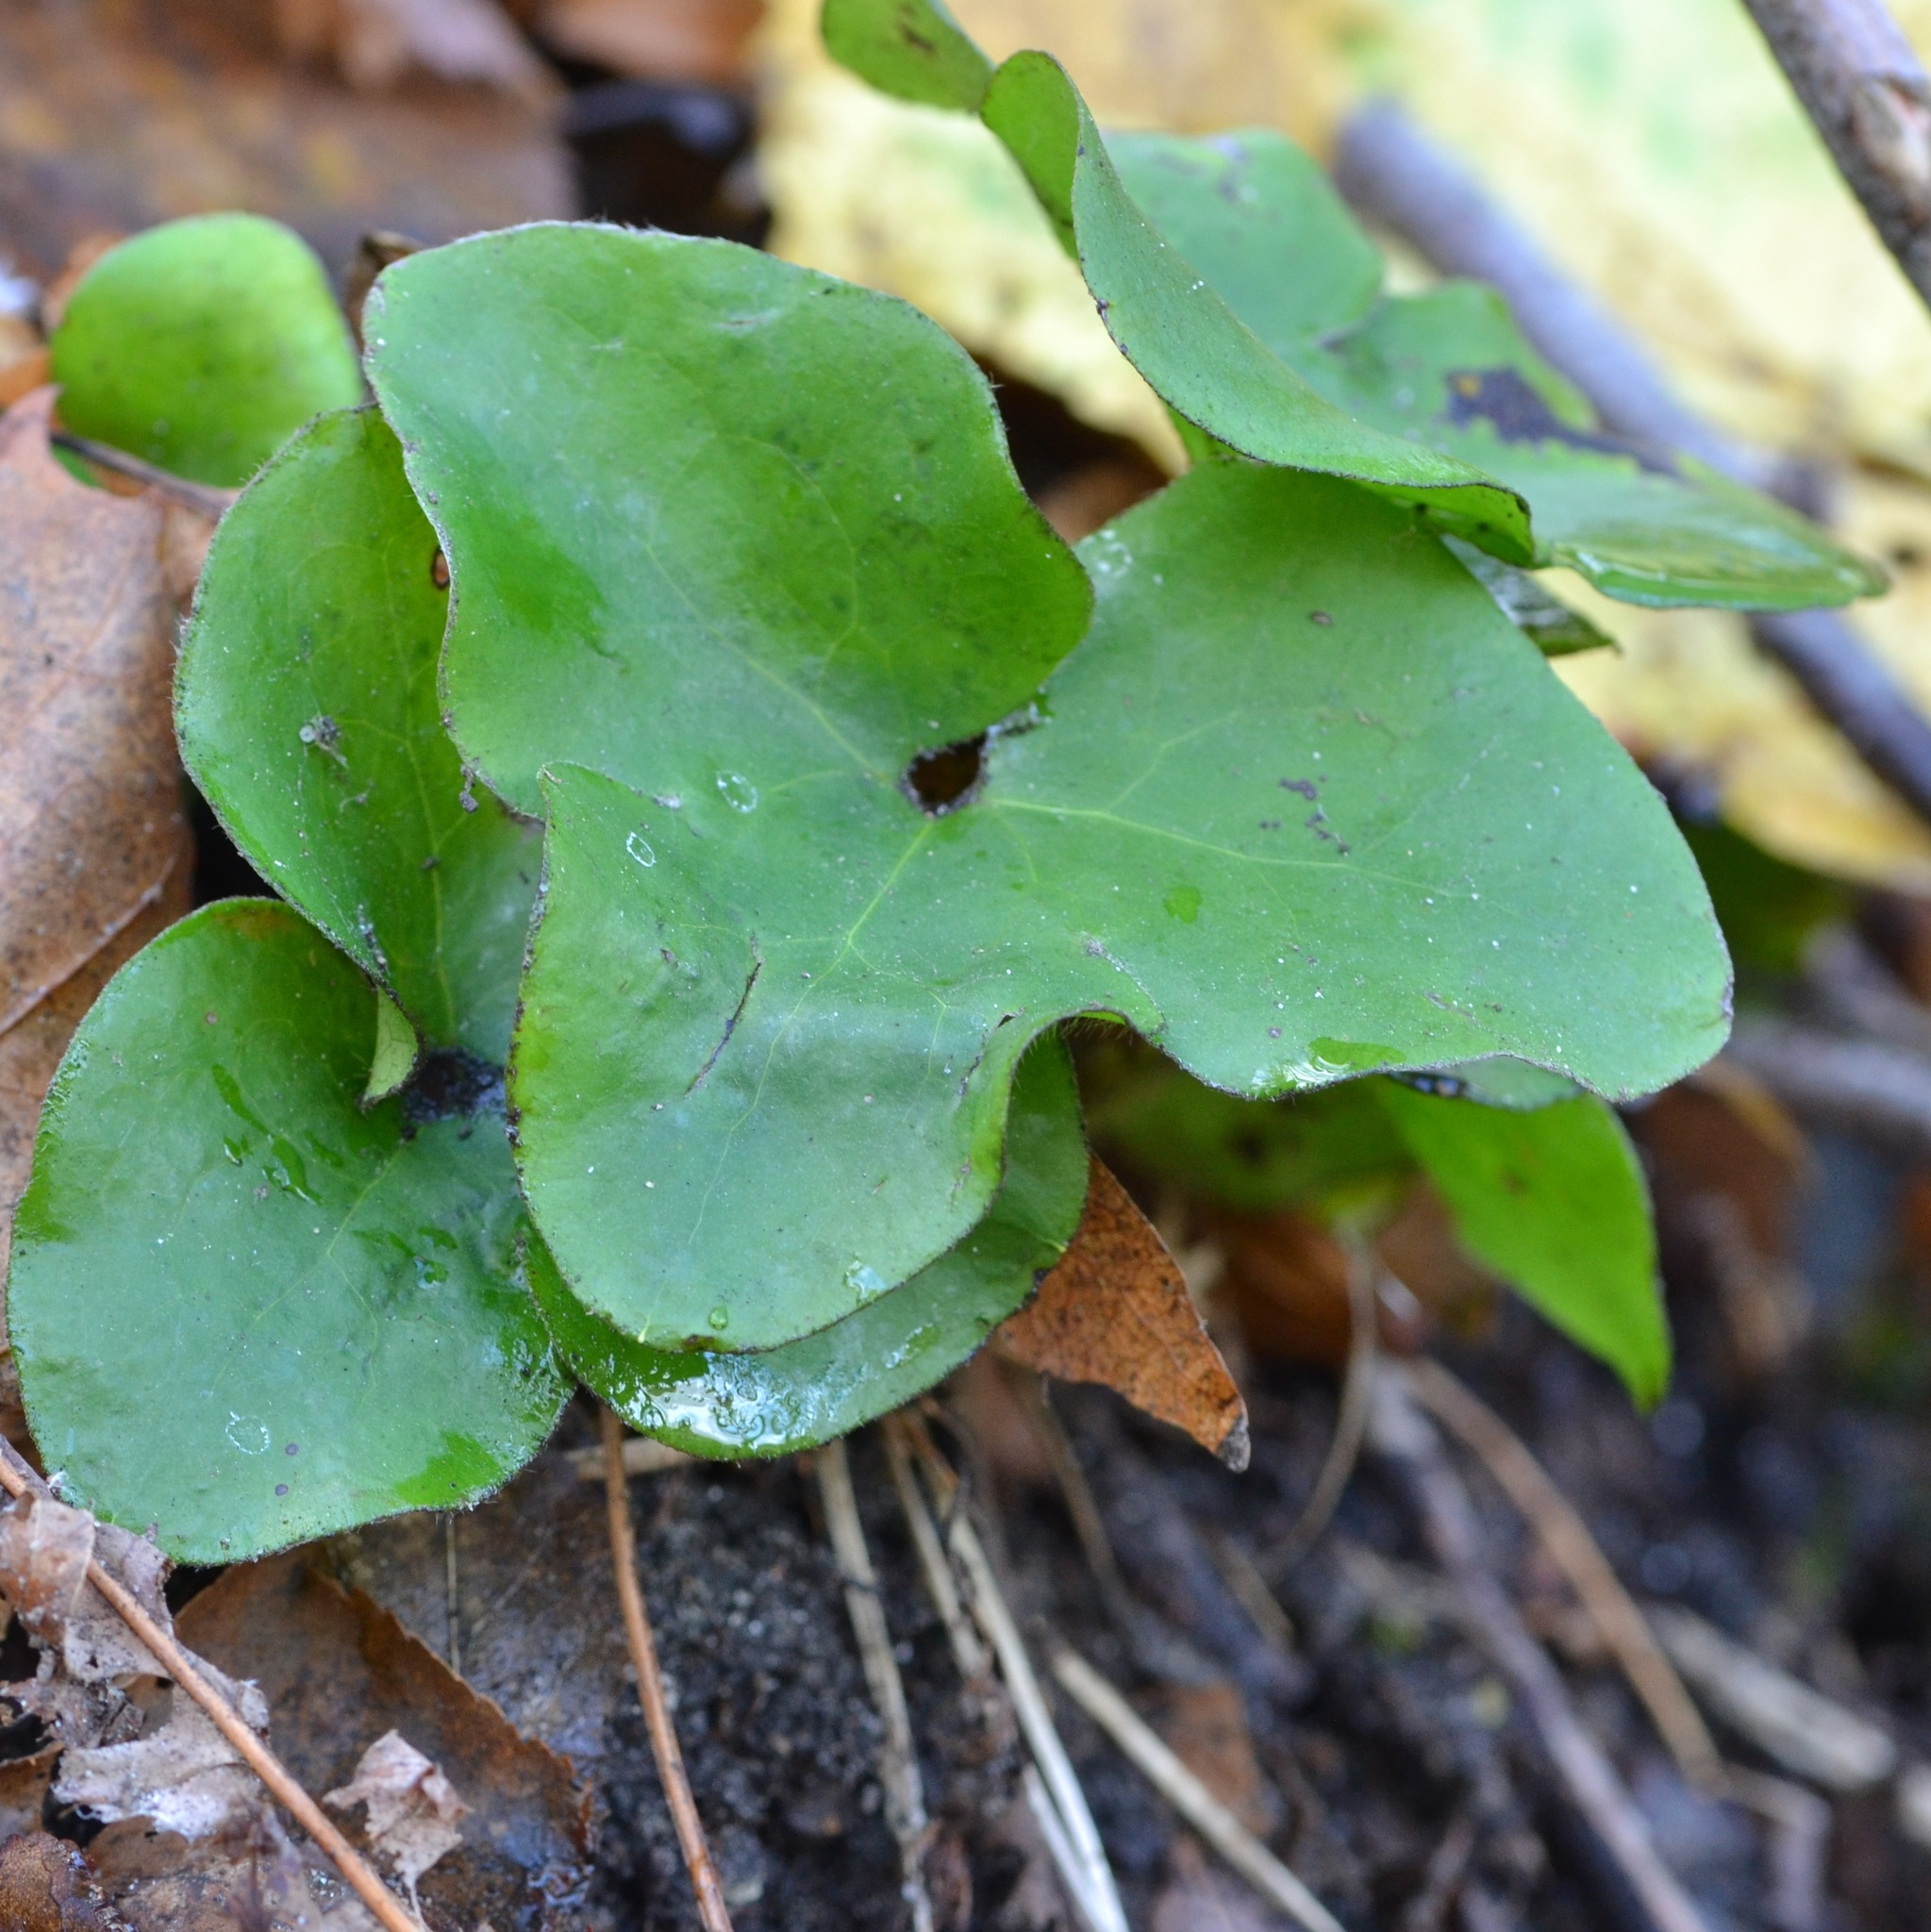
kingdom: Plantae
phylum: Tracheophyta
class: Magnoliopsida
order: Ranunculales
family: Ranunculaceae
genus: Hepatica
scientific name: Hepatica nobilis
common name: Liverleaf
